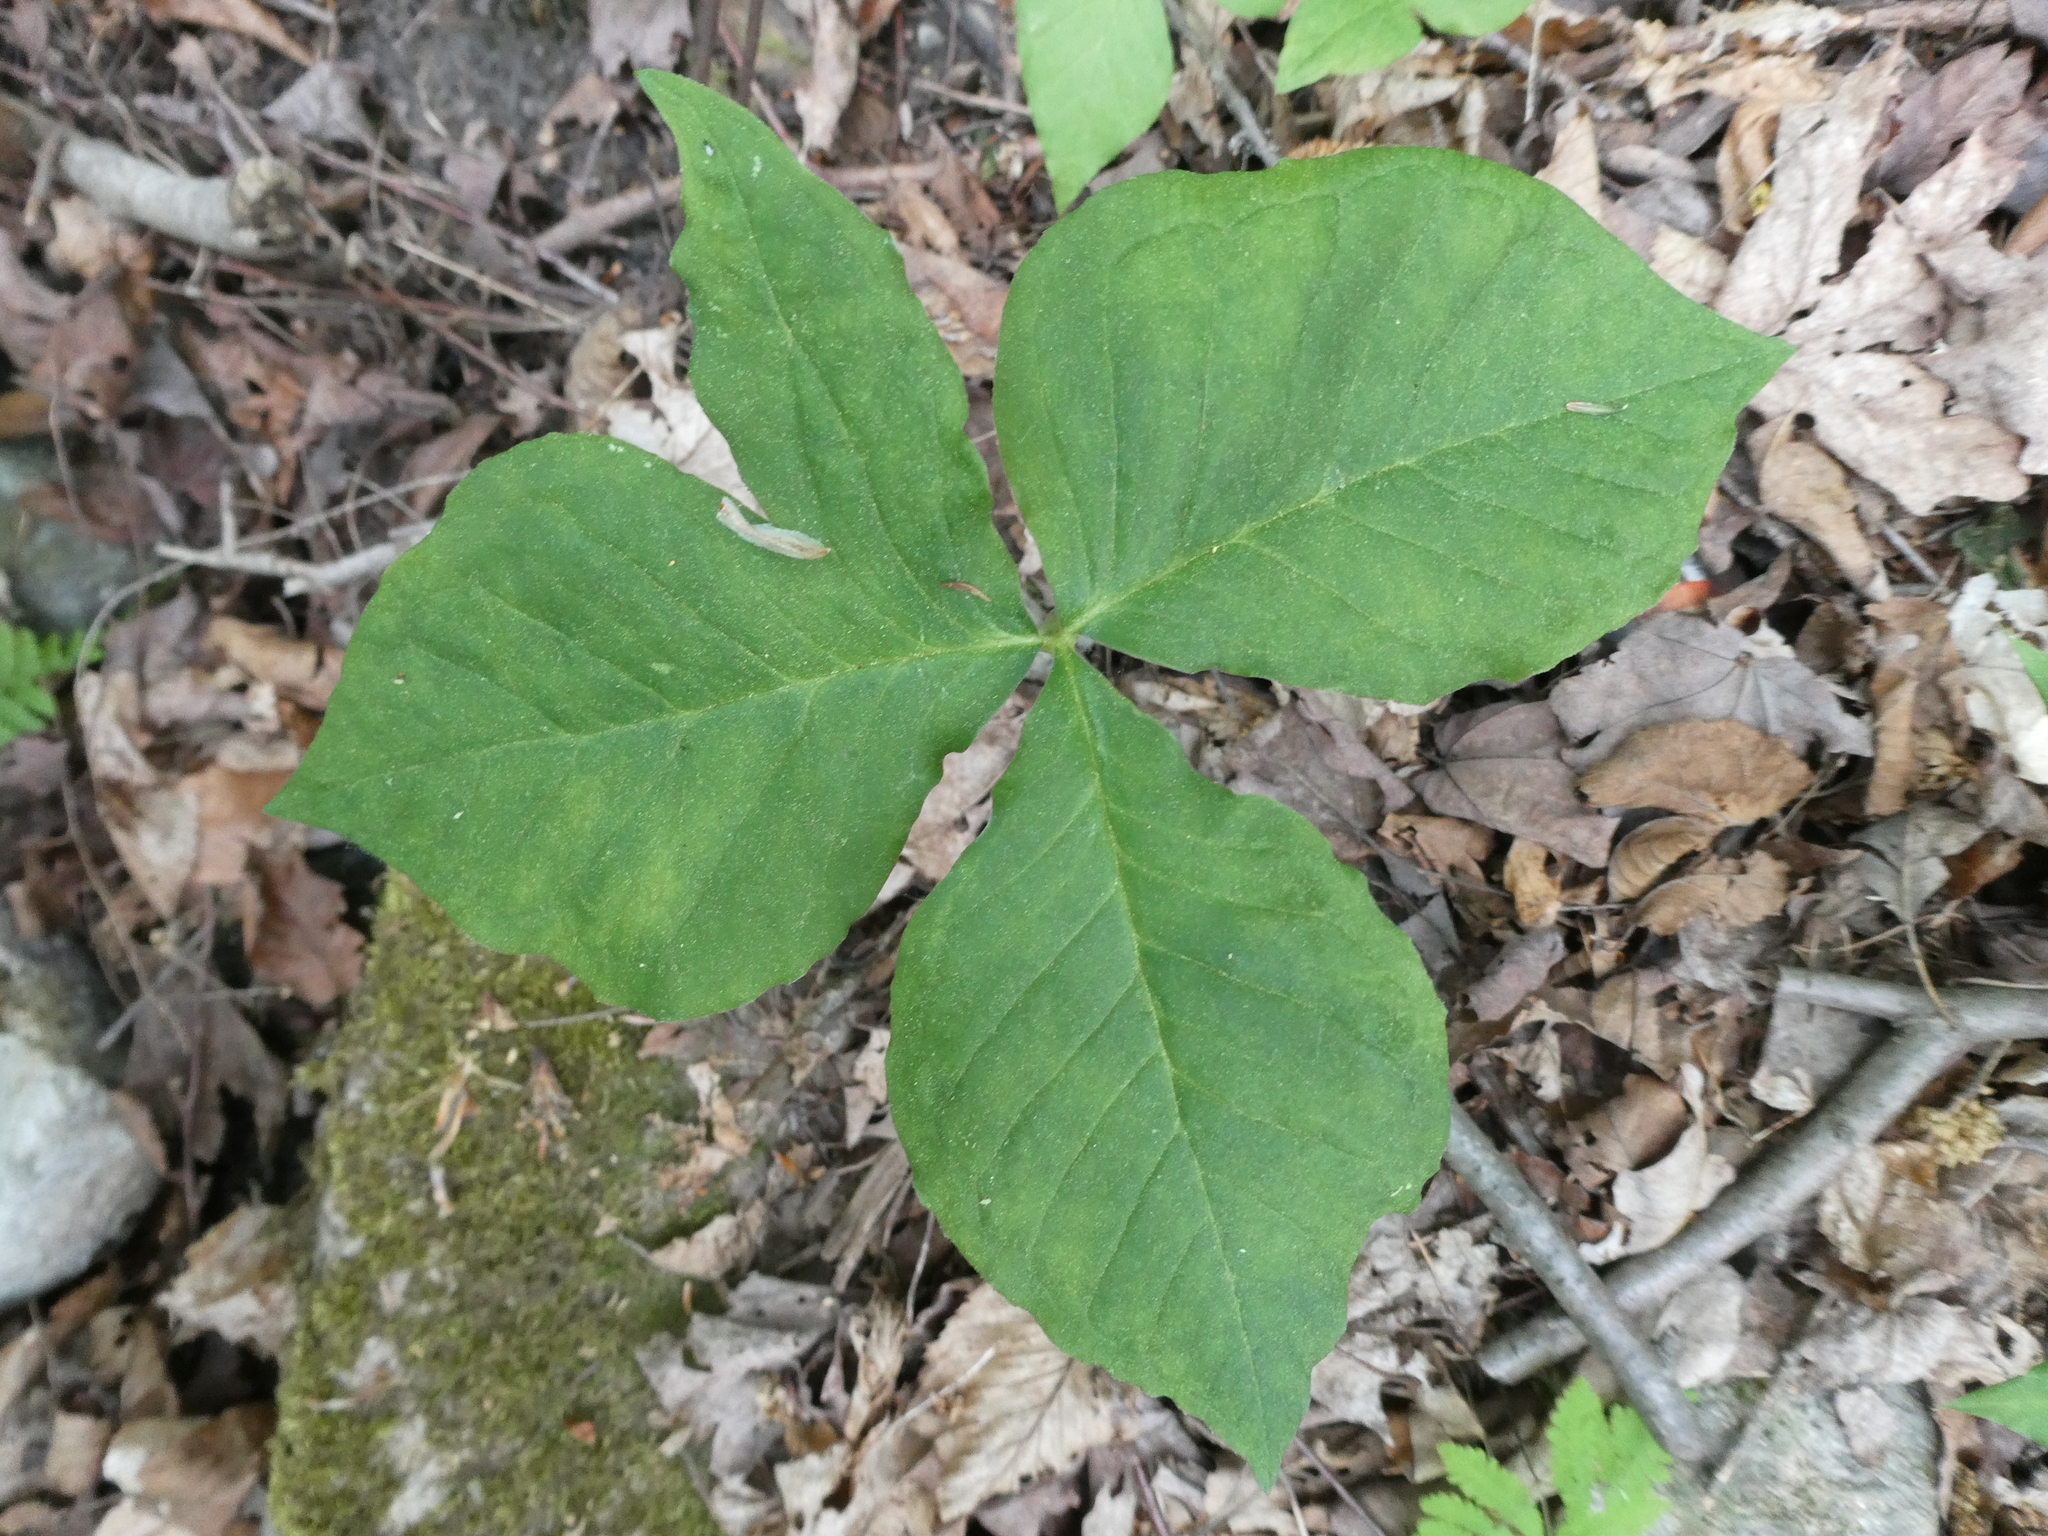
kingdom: Plantae
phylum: Tracheophyta
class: Liliopsida
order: Alismatales
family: Araceae
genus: Arisaema
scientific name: Arisaema triphyllum
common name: Jack-in-the-pulpit
